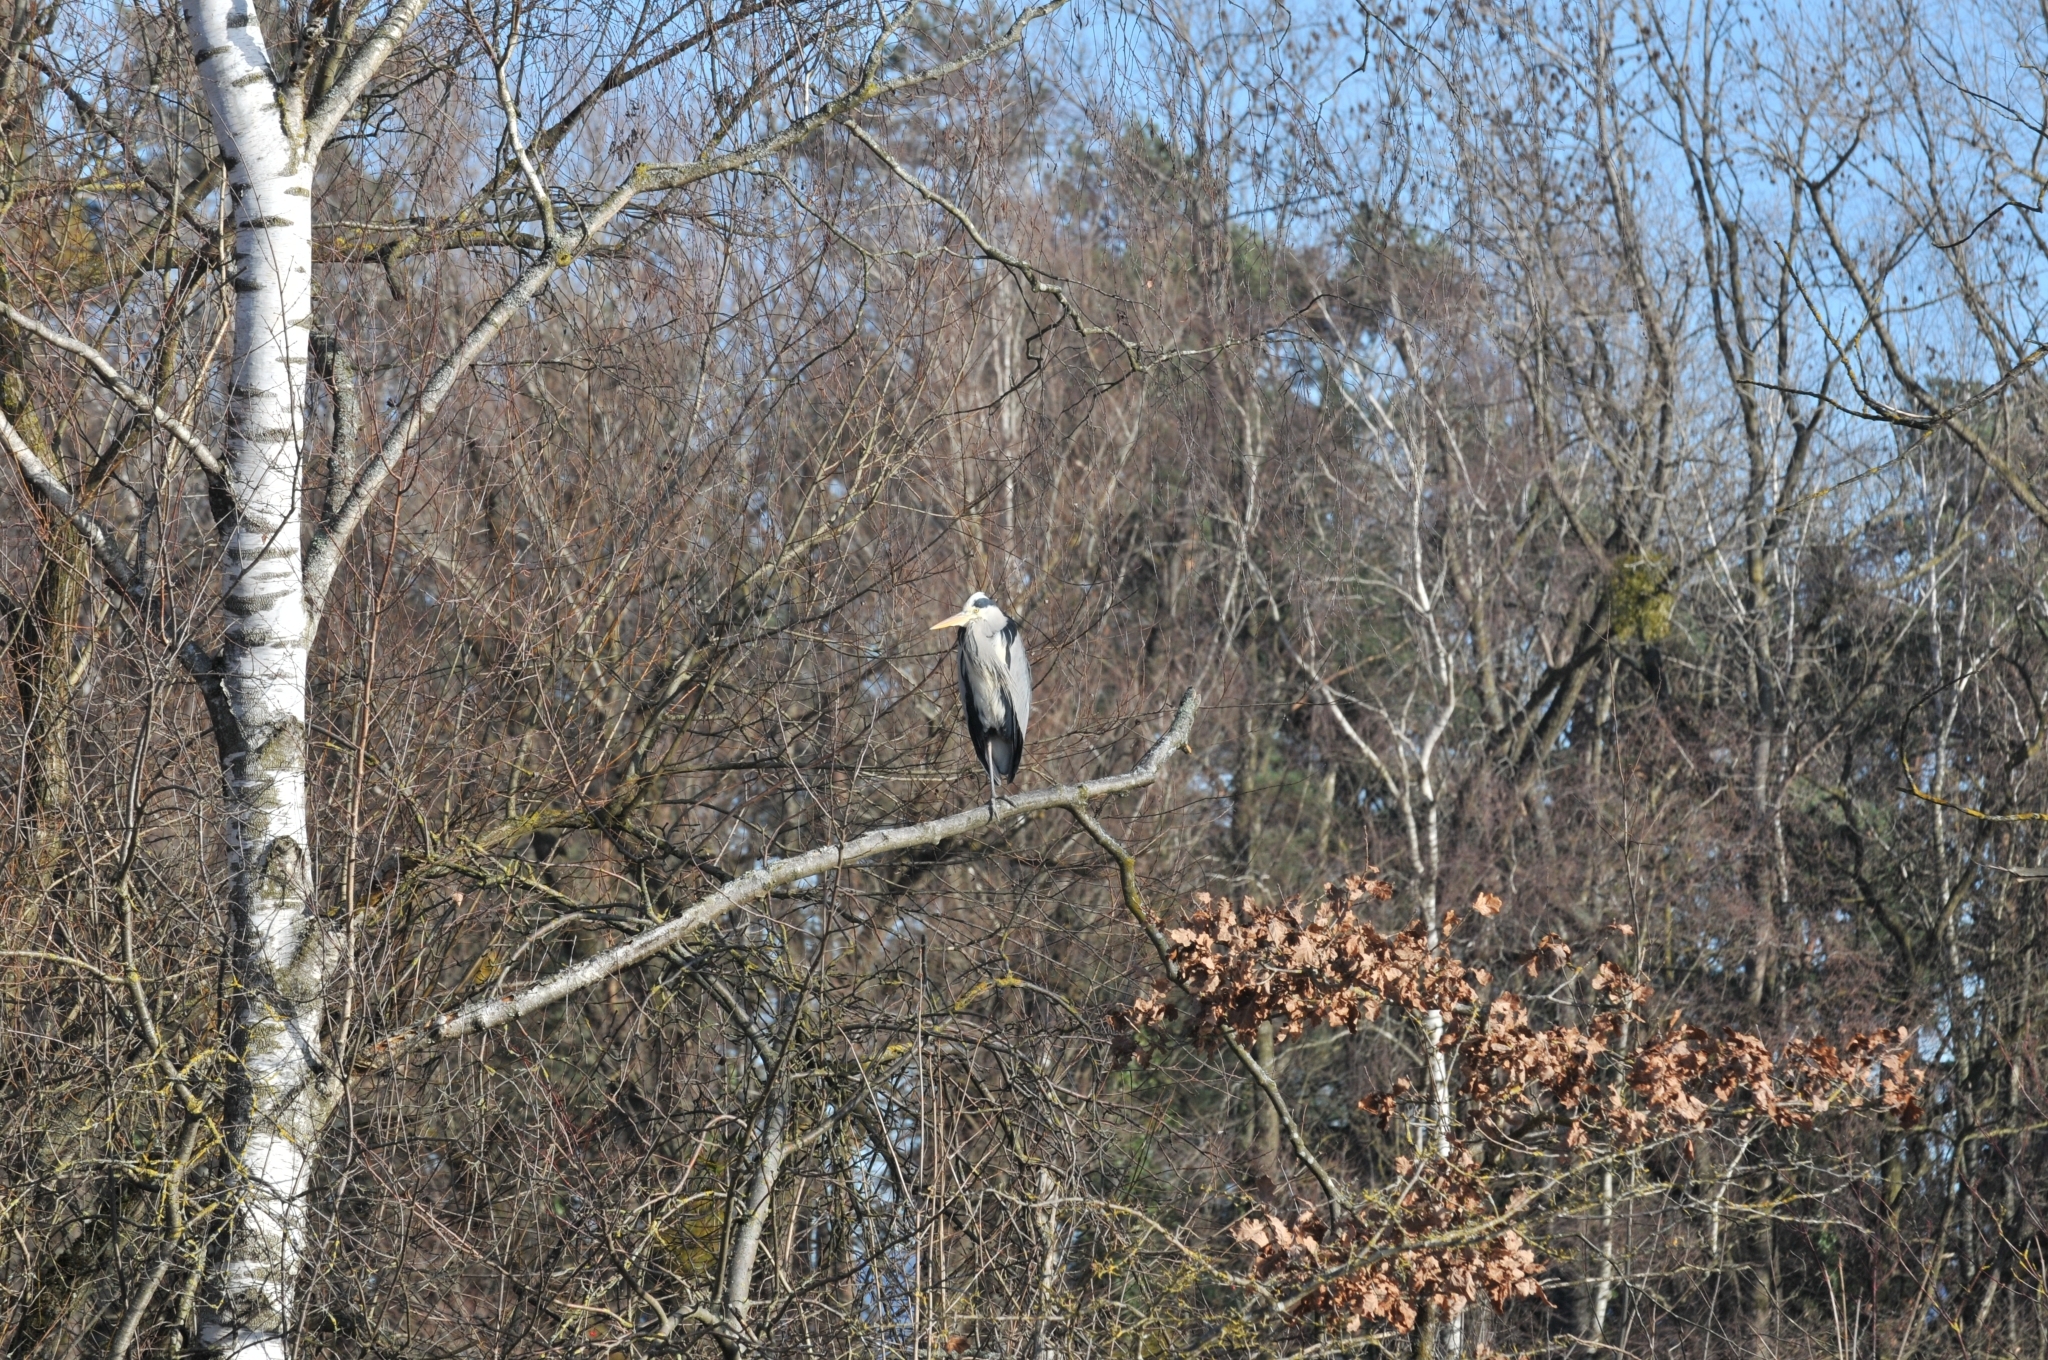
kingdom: Animalia
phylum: Chordata
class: Aves
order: Pelecaniformes
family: Ardeidae
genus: Ardea
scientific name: Ardea cinerea
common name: Grey heron
